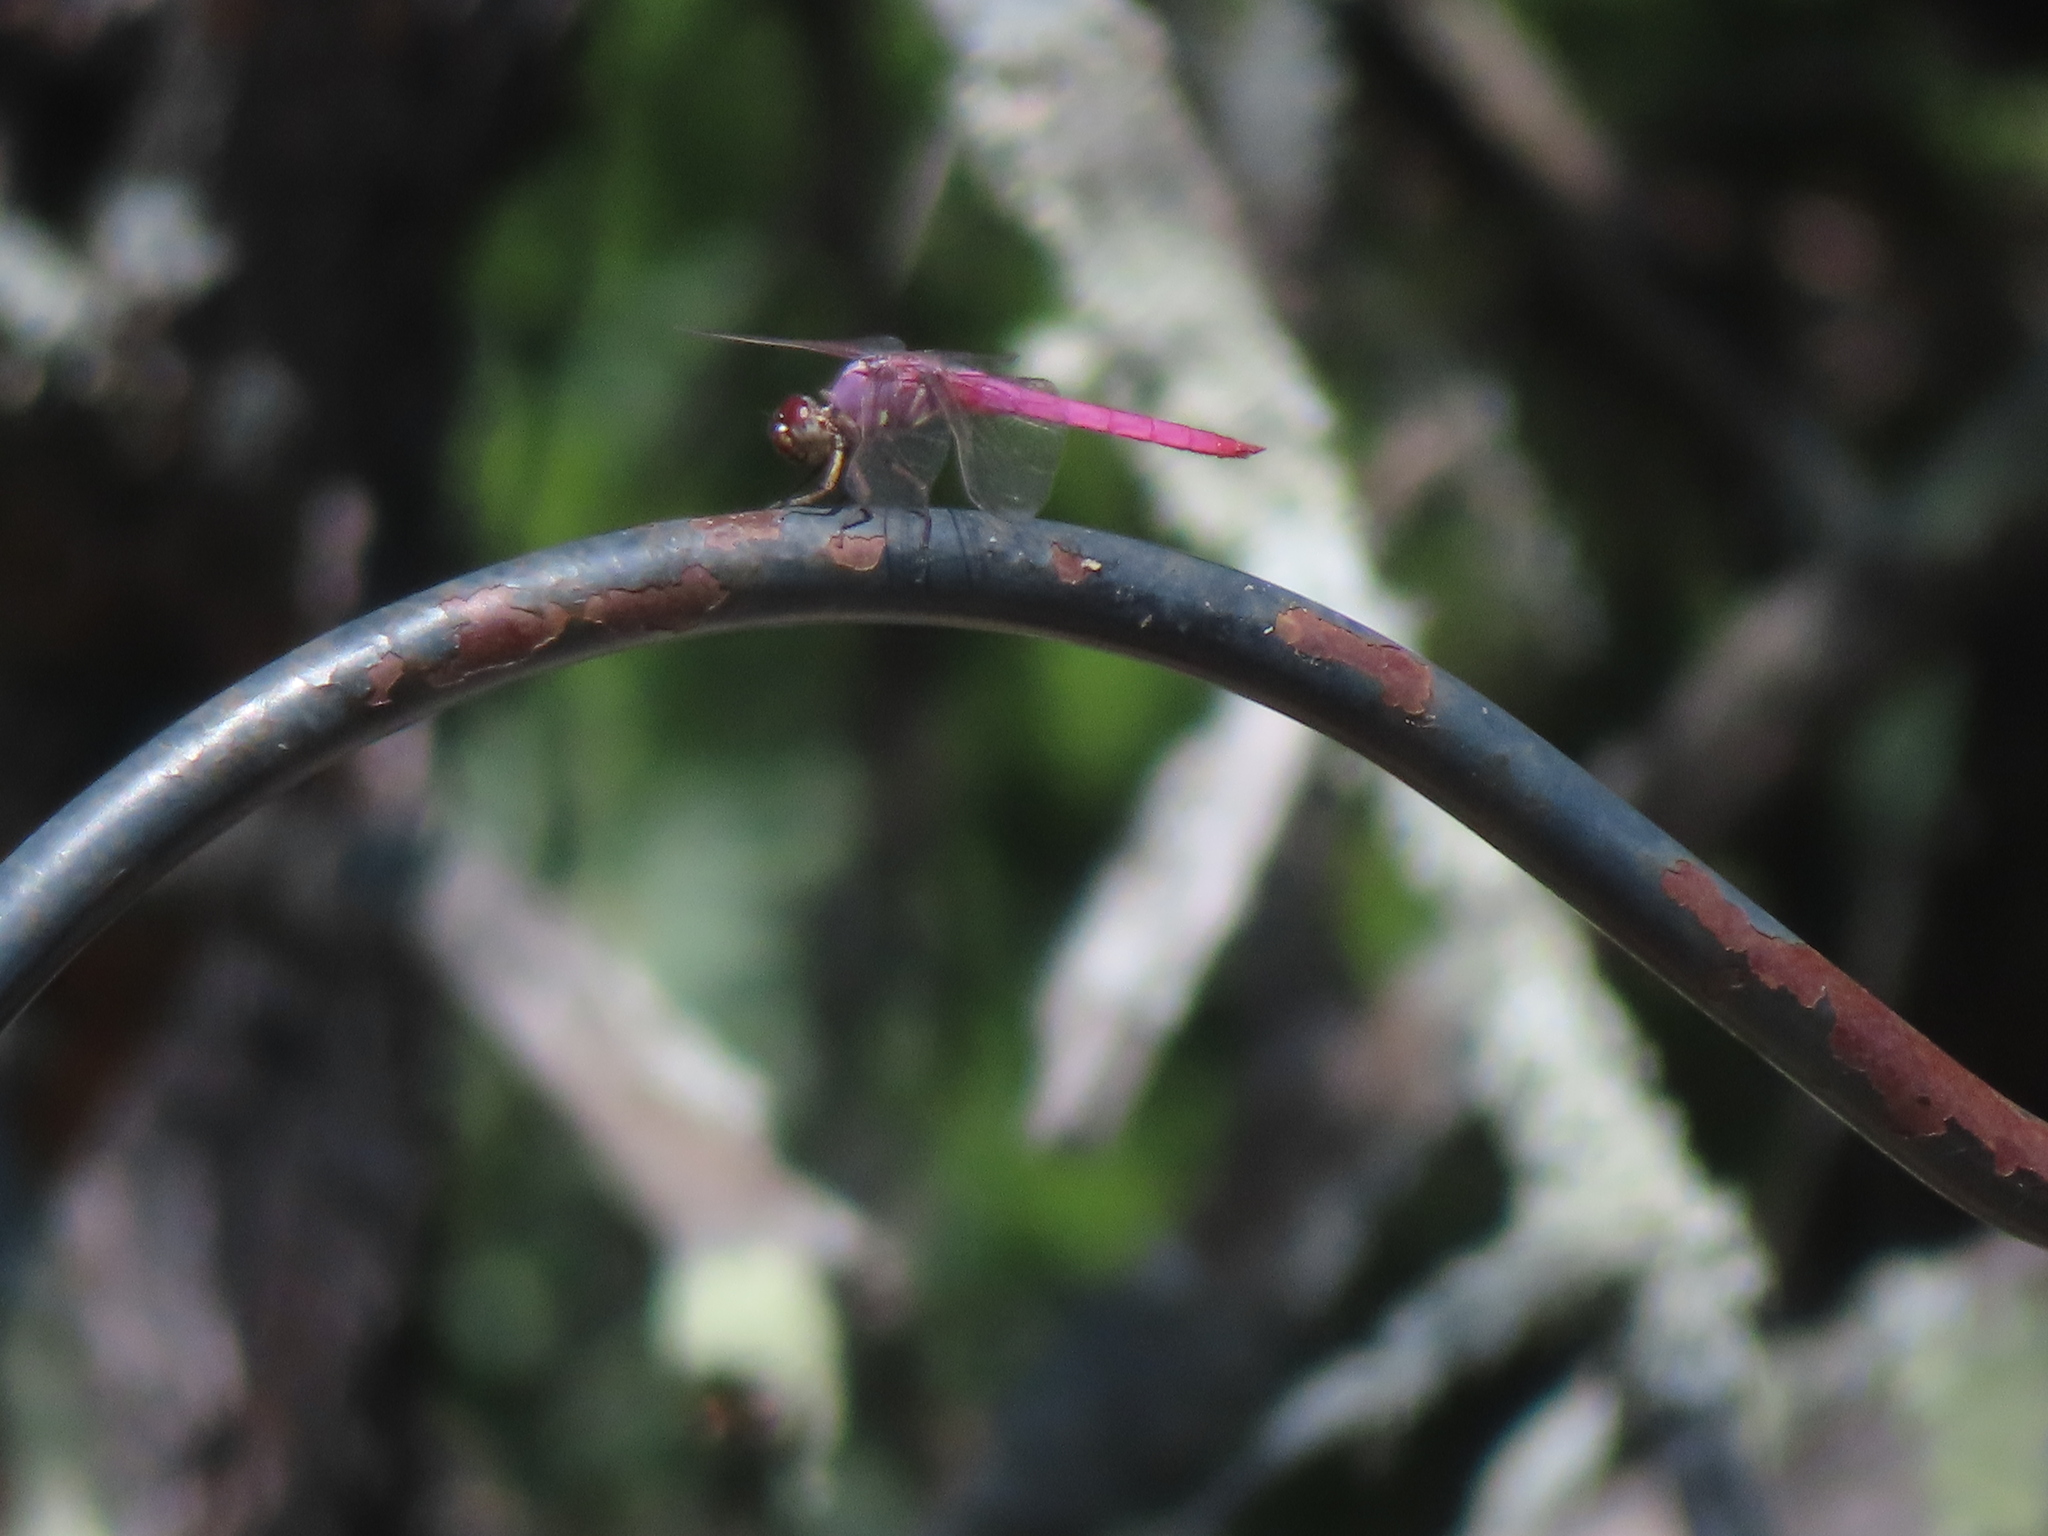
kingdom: Animalia
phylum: Arthropoda
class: Insecta
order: Odonata
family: Libellulidae
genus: Orthemis
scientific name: Orthemis ferruginea
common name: Roseate skimmer
